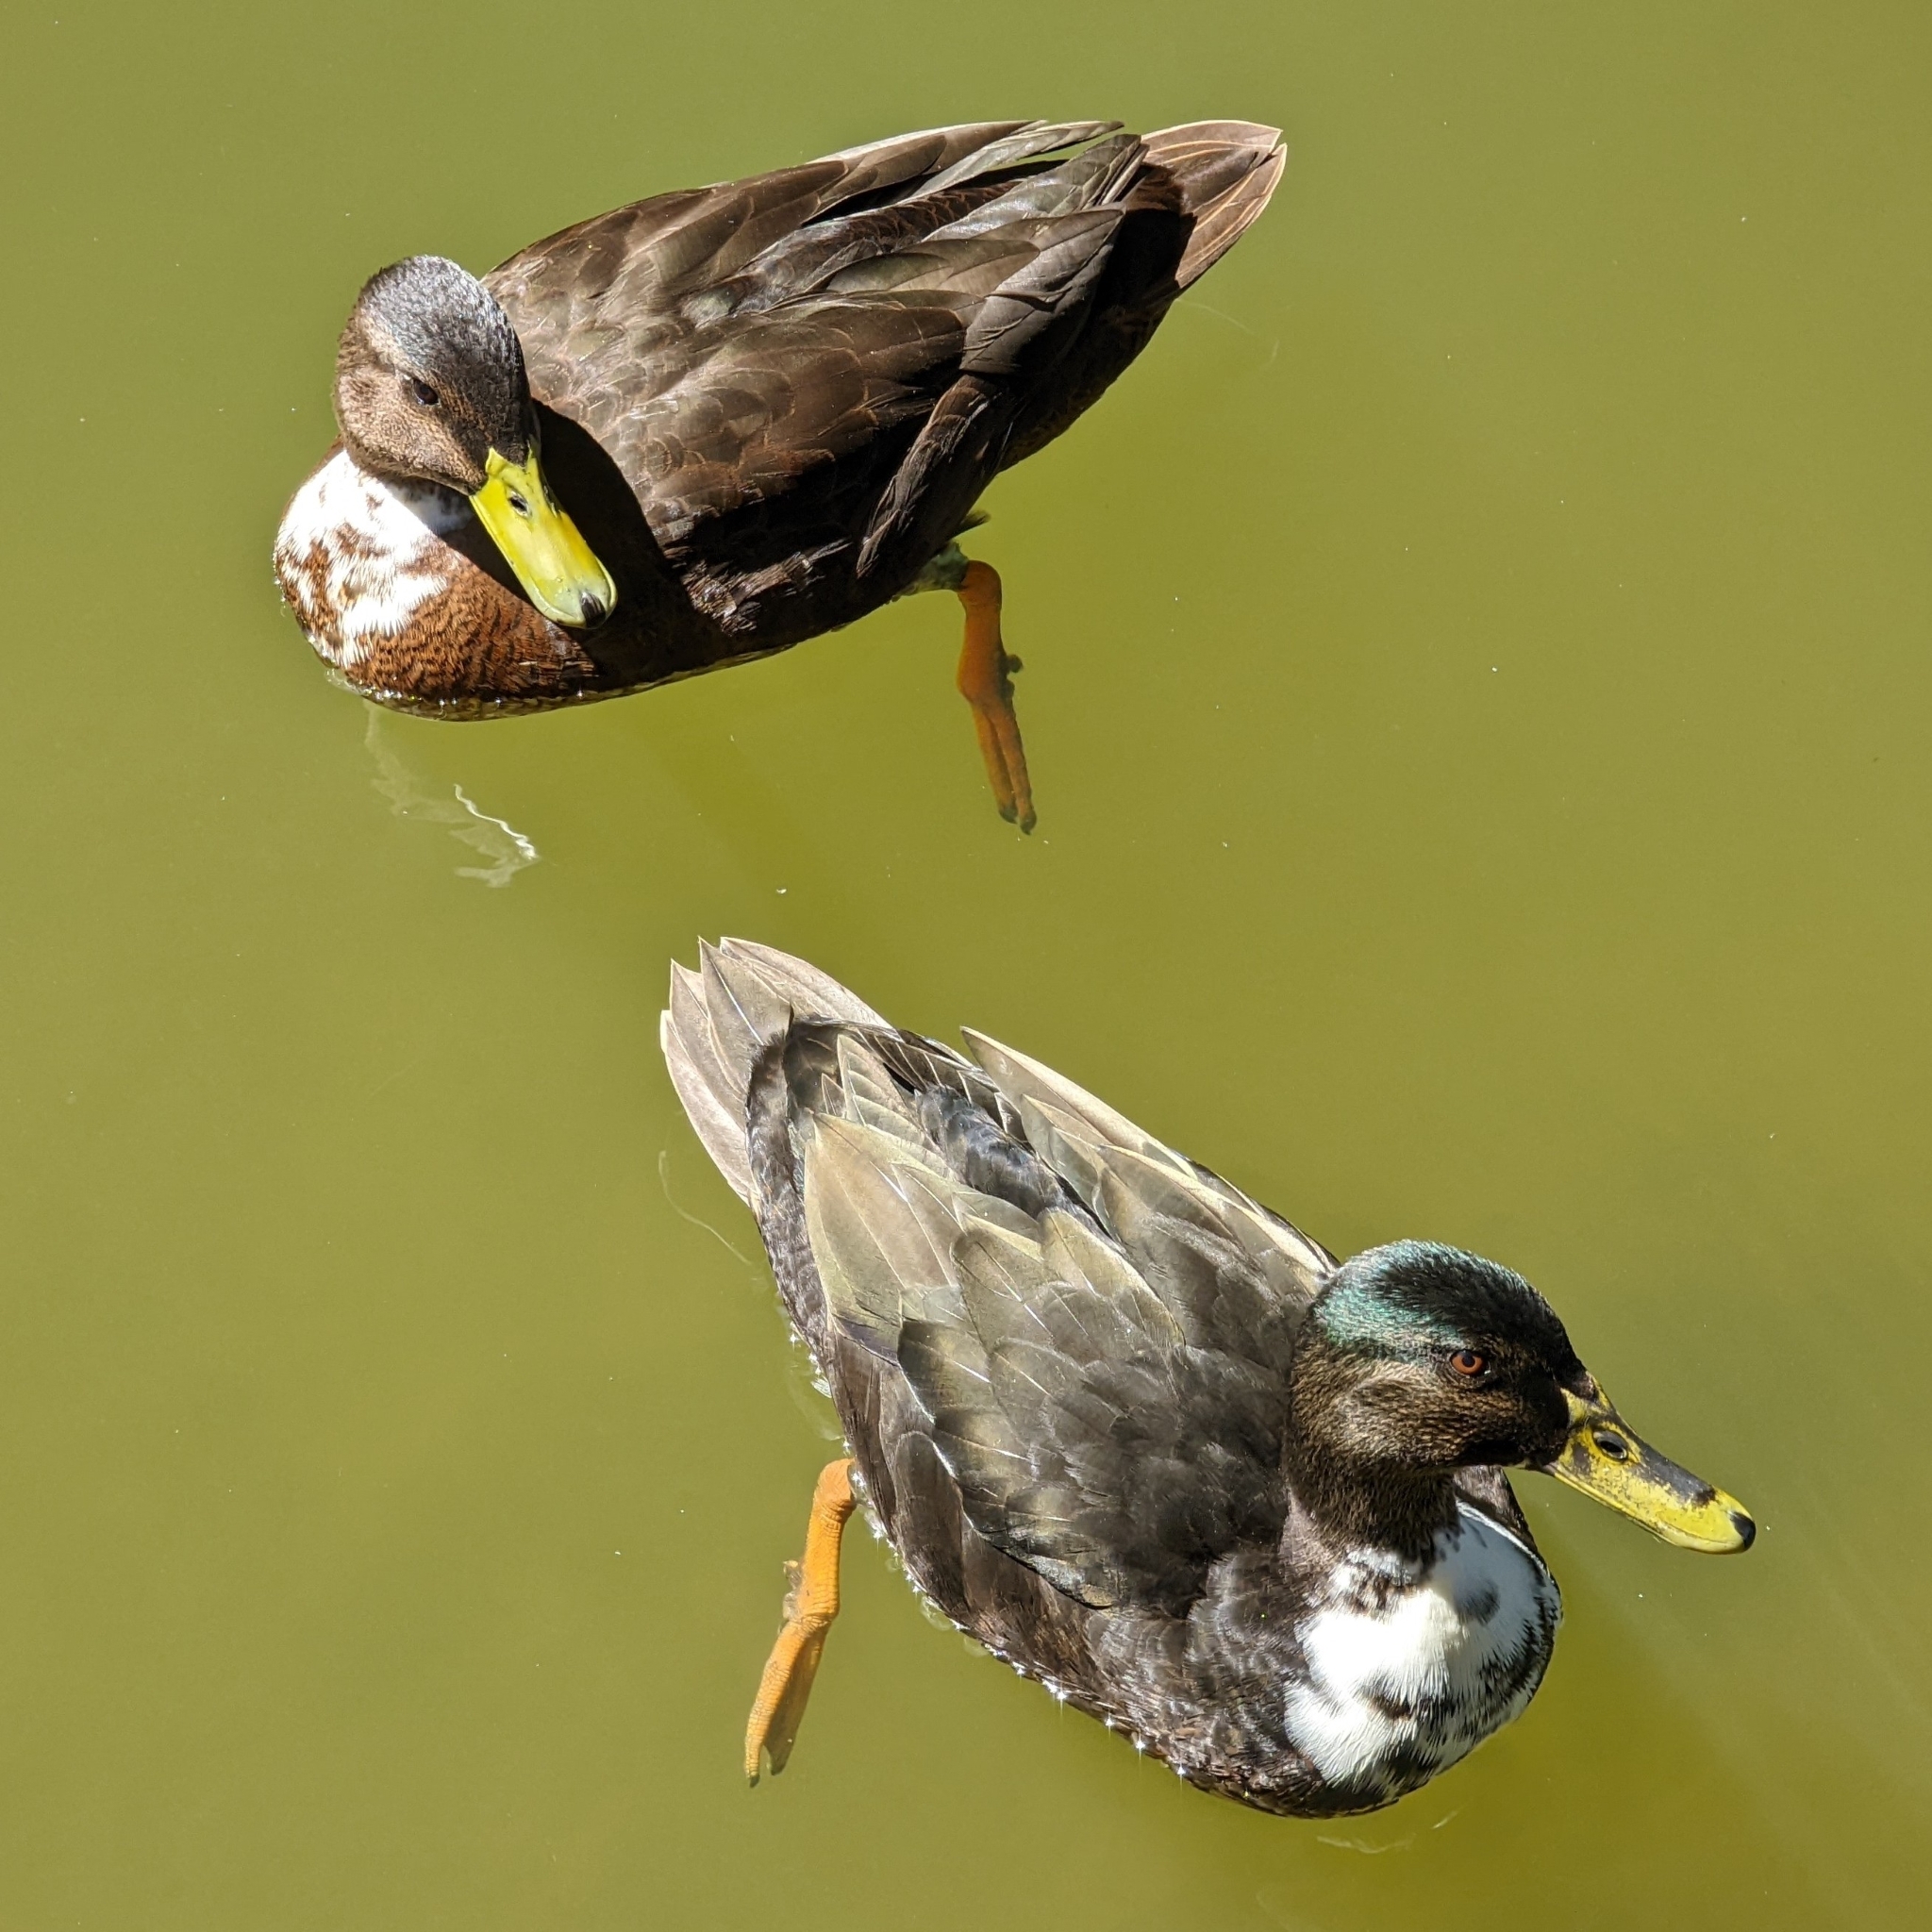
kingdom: Animalia
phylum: Chordata
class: Aves
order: Anseriformes
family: Anatidae
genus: Anas
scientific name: Anas platyrhynchos
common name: Mallard
